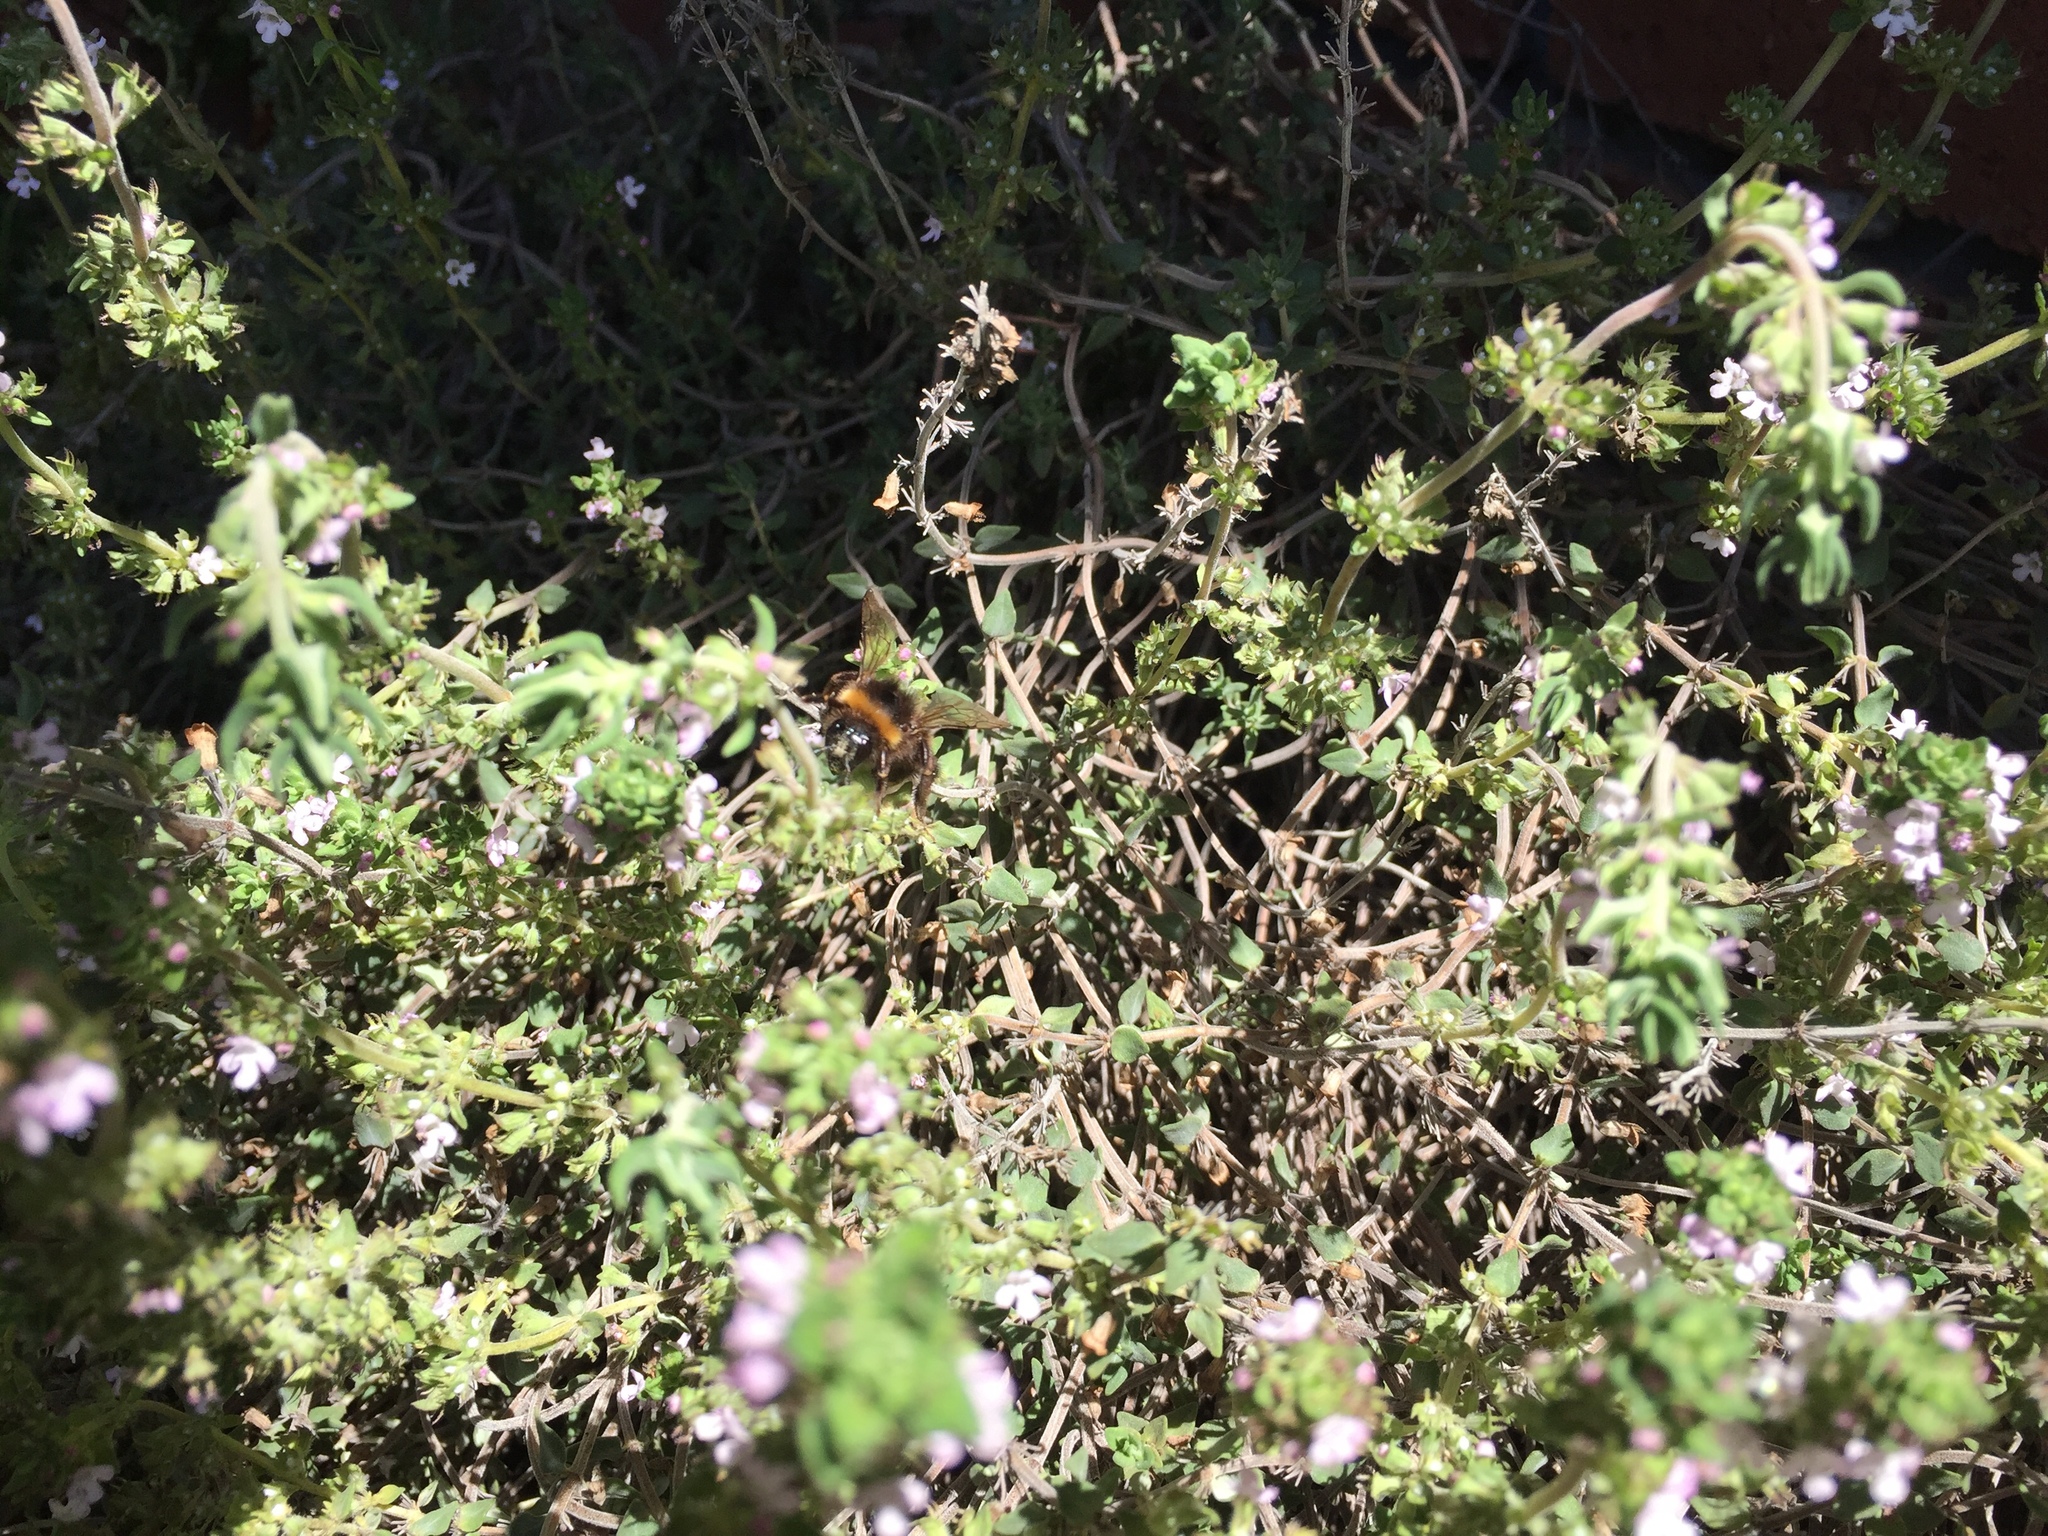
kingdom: Animalia
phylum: Arthropoda
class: Insecta
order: Hymenoptera
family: Apidae
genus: Bombus
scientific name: Bombus terrestris
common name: Buff-tailed bumblebee
